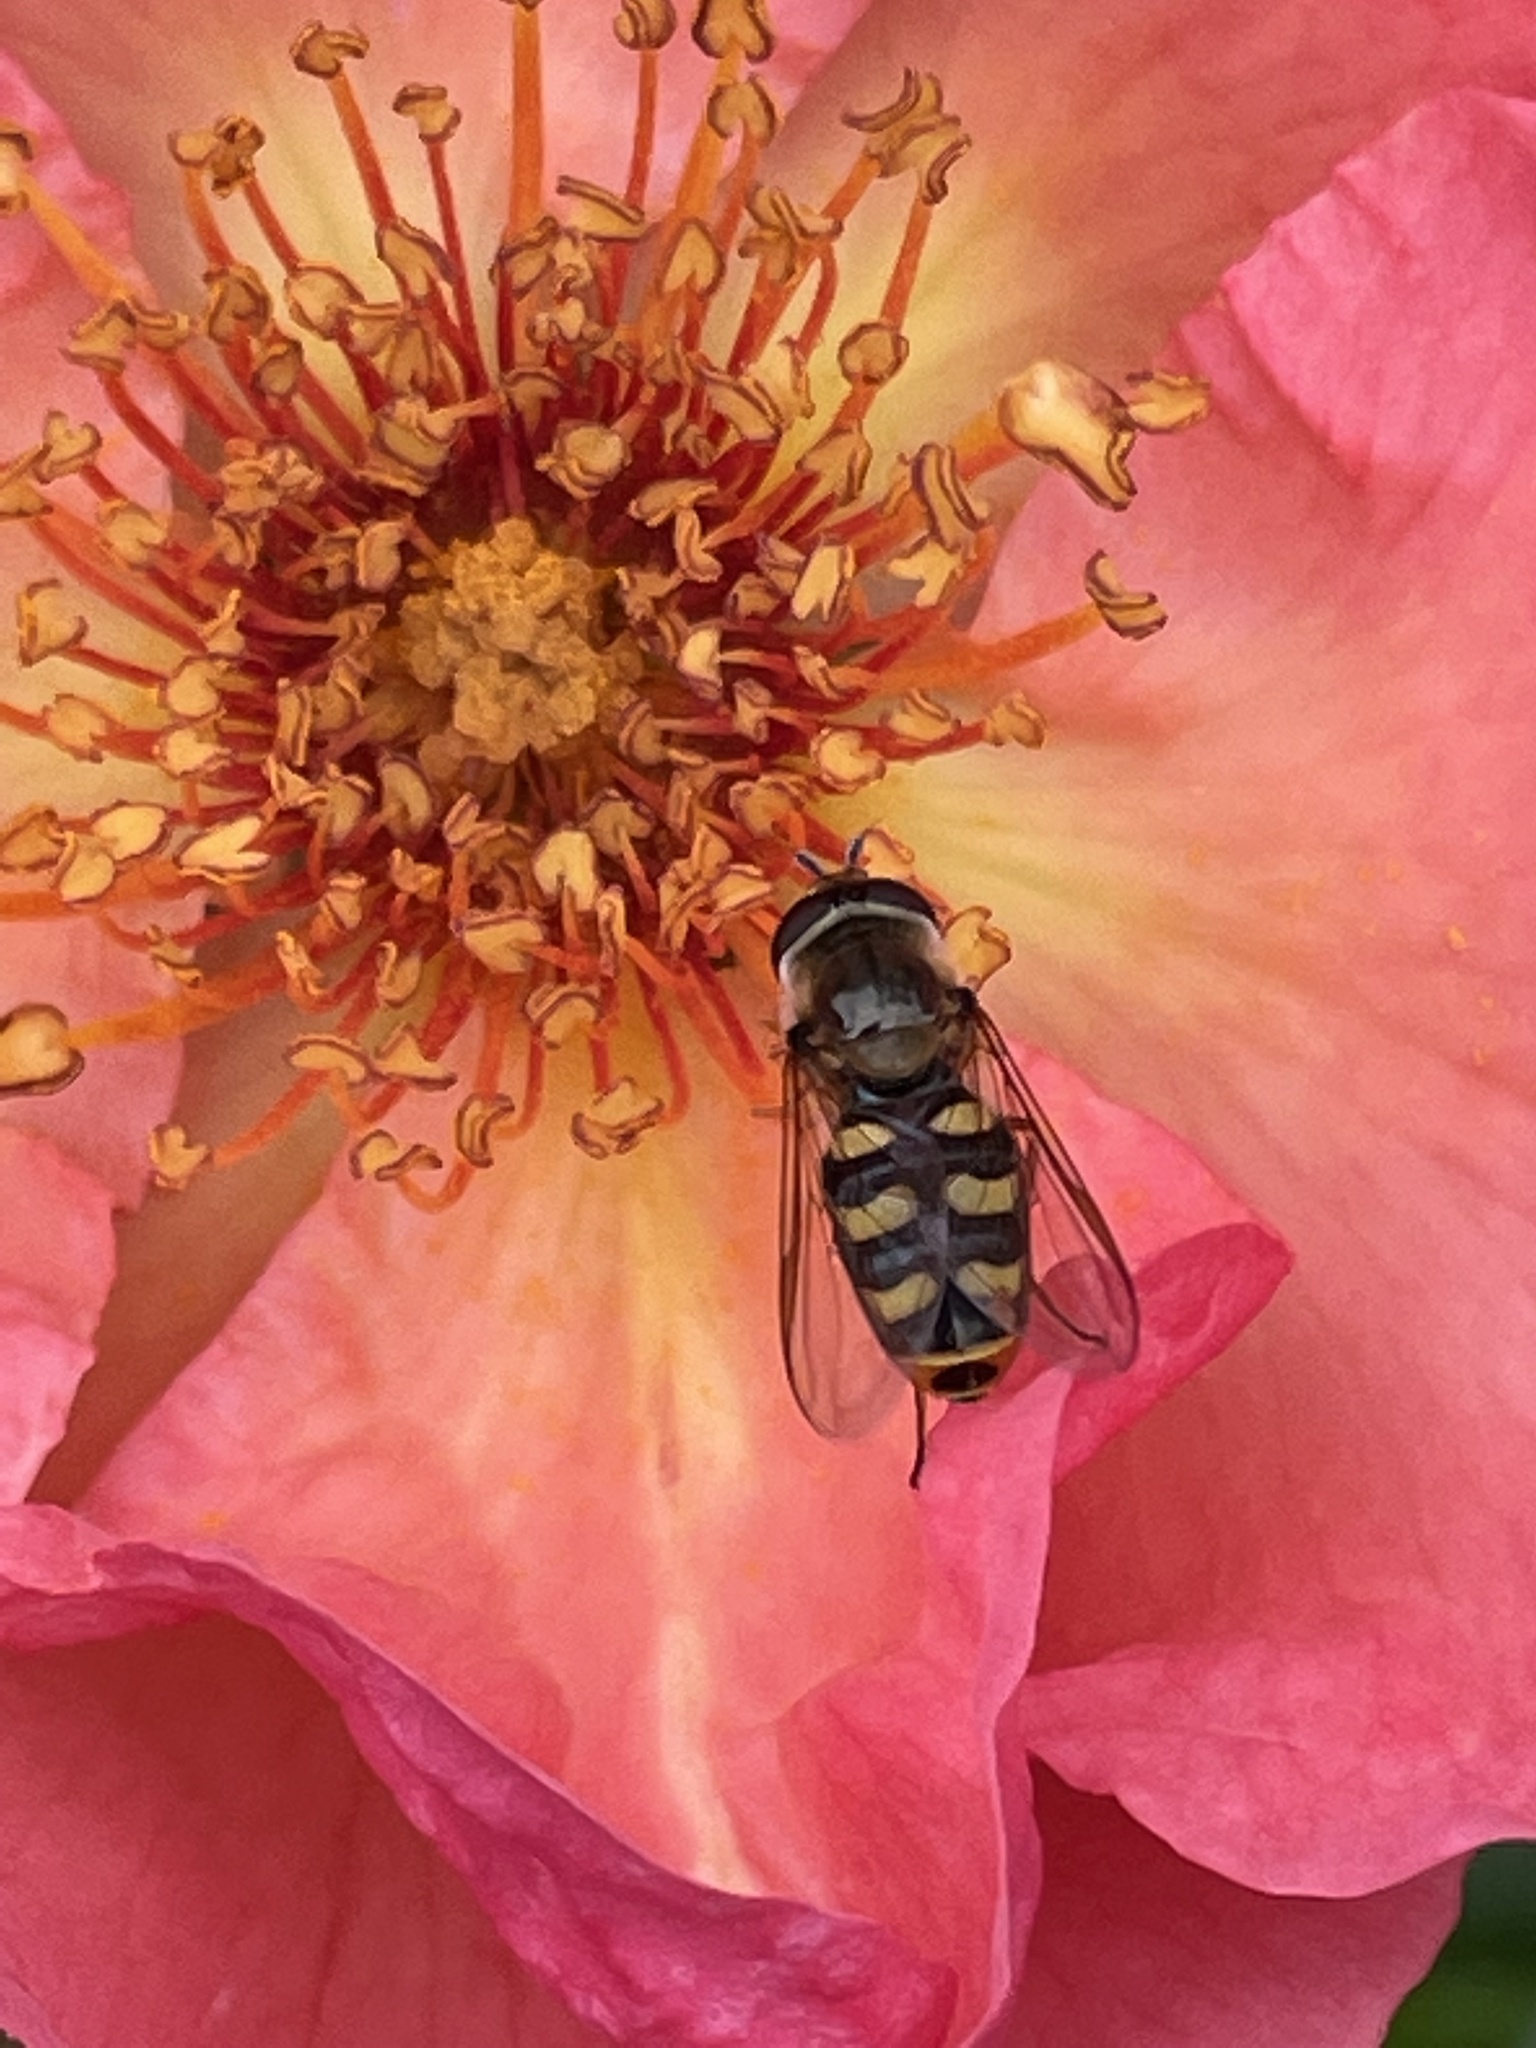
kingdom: Animalia
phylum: Arthropoda
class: Insecta
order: Diptera
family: Syrphidae
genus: Eupeodes
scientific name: Eupeodes luniger
